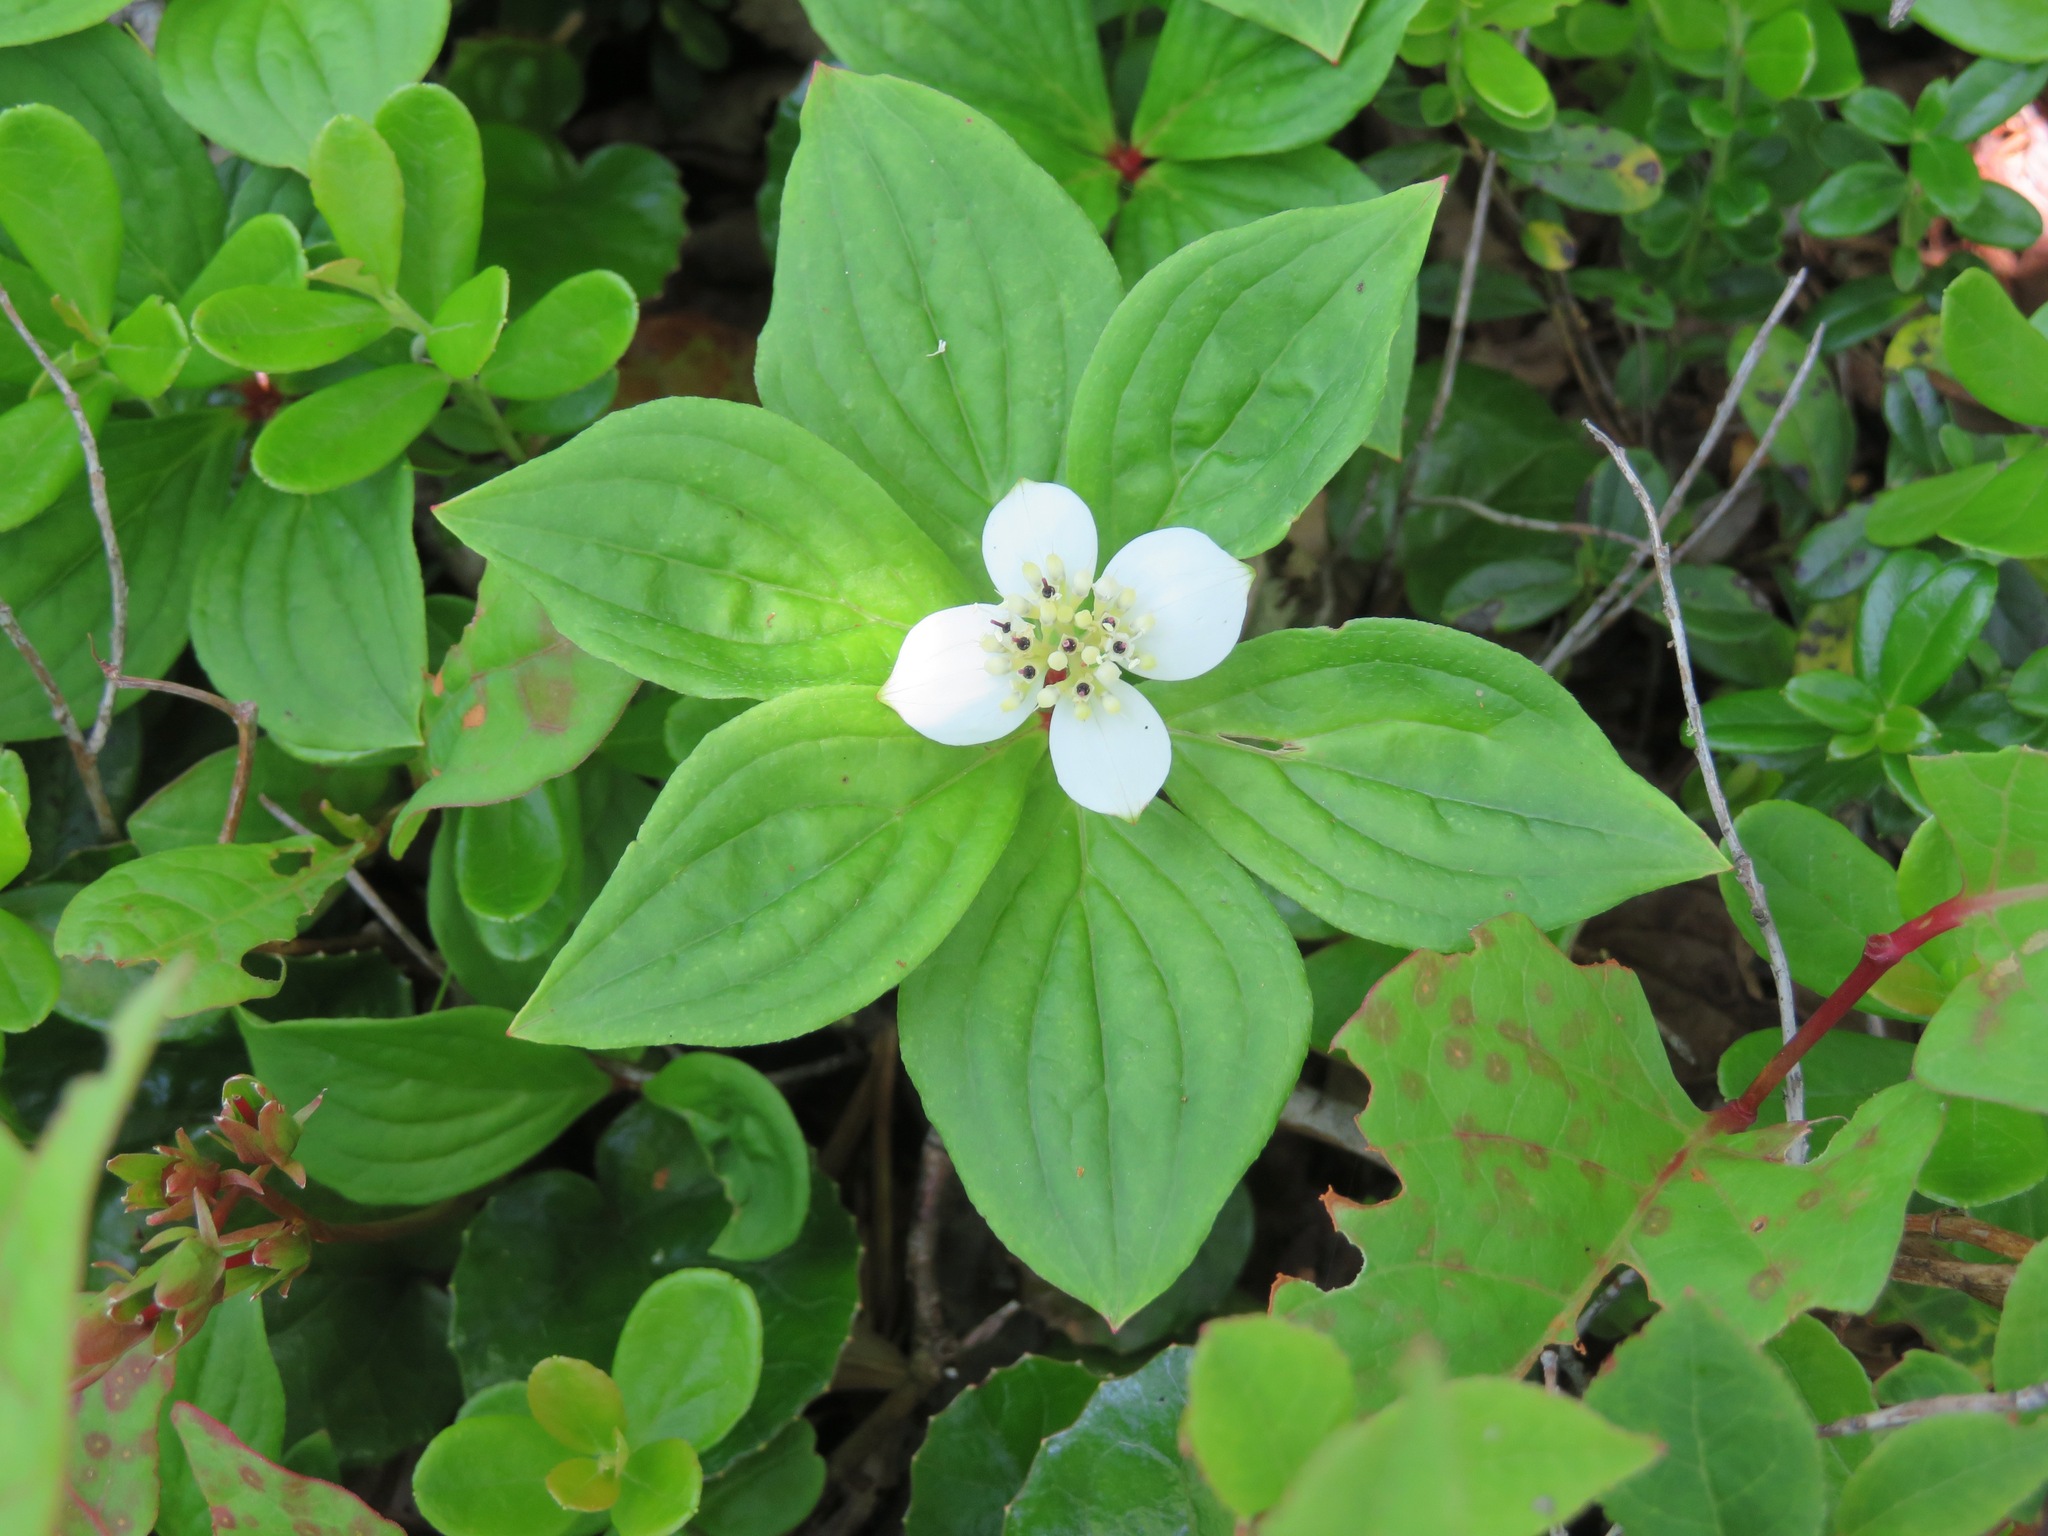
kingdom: Plantae
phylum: Tracheophyta
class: Magnoliopsida
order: Cornales
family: Cornaceae
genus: Cornus
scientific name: Cornus canadensis
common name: Creeping dogwood
